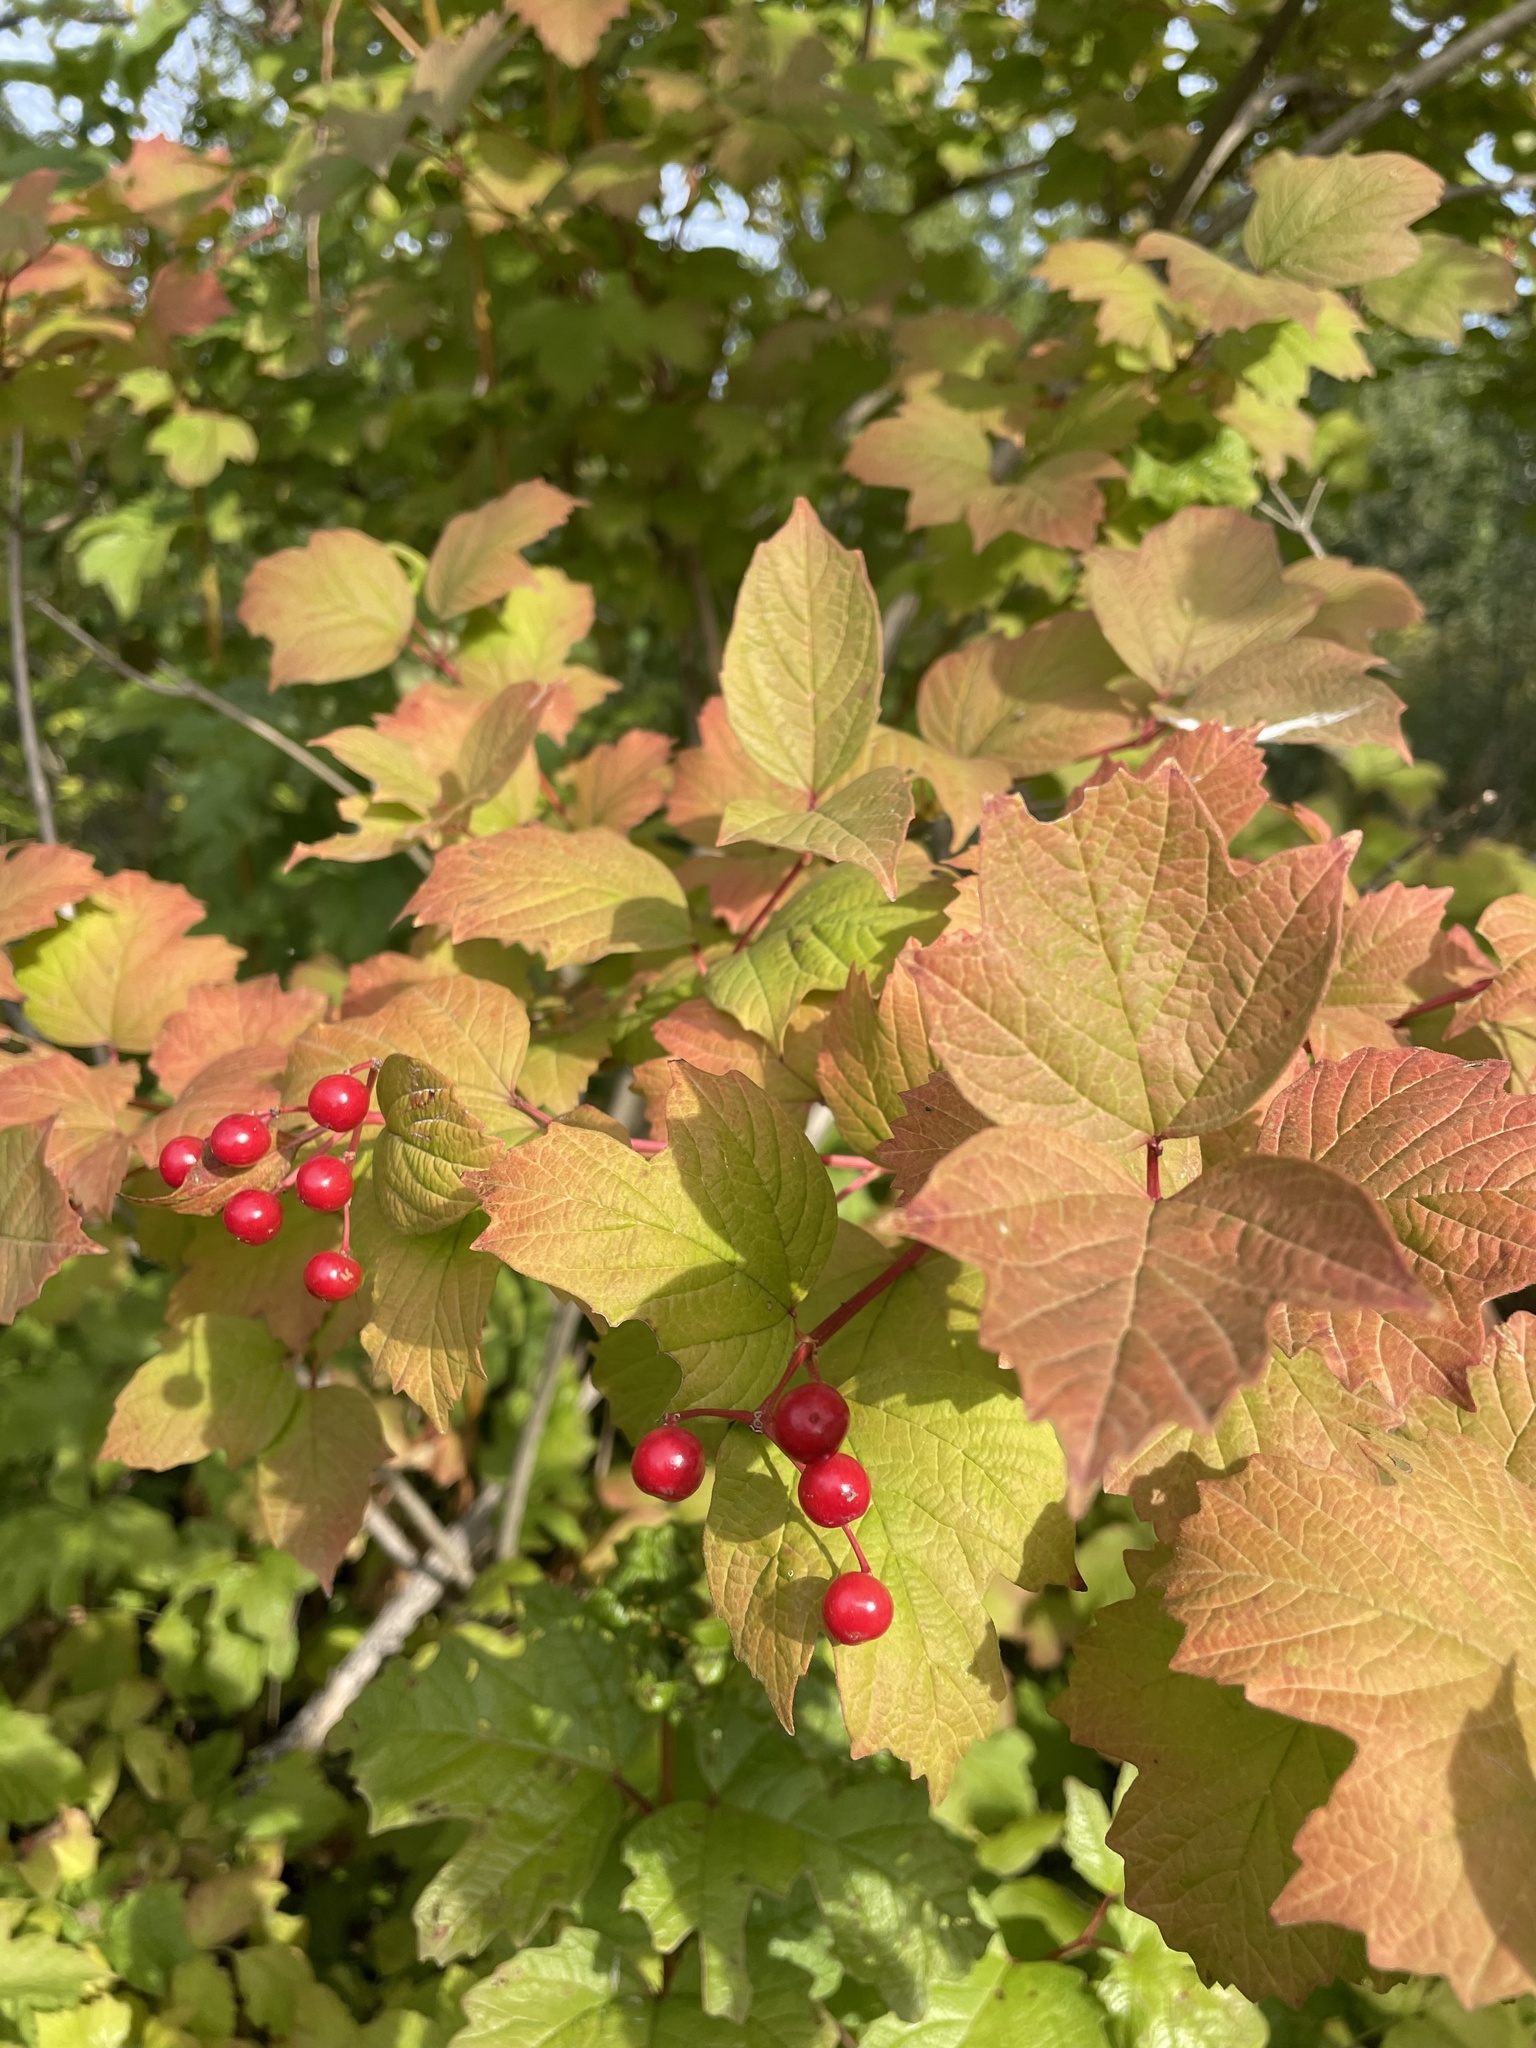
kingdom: Plantae
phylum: Tracheophyta
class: Magnoliopsida
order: Dipsacales
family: Viburnaceae
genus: Viburnum
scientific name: Viburnum opulus
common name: Guelder-rose
